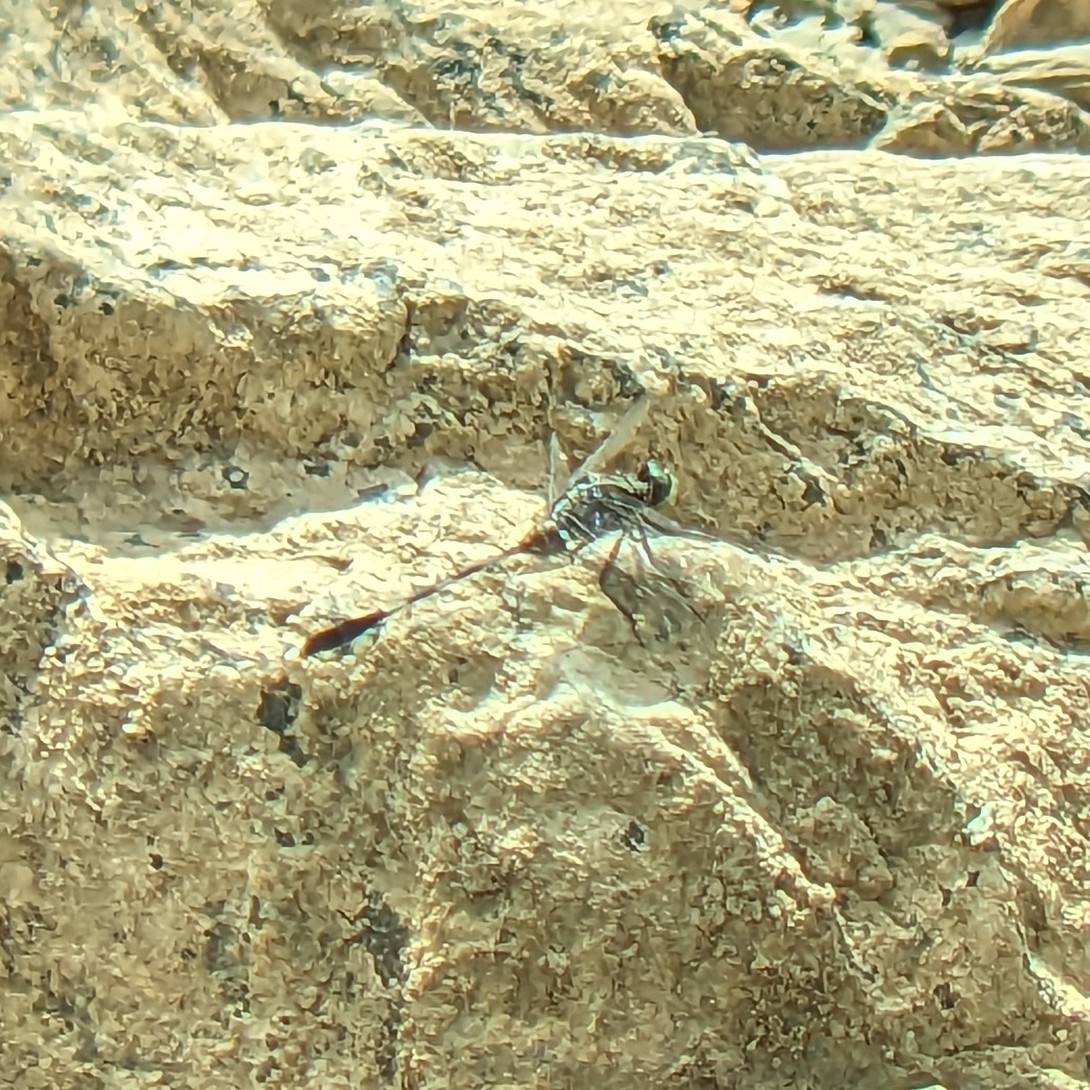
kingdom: Animalia
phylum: Arthropoda
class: Insecta
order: Odonata
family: Libellulidae
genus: Orthetrum
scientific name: Orthetrum sabina
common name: Slender skimmer
